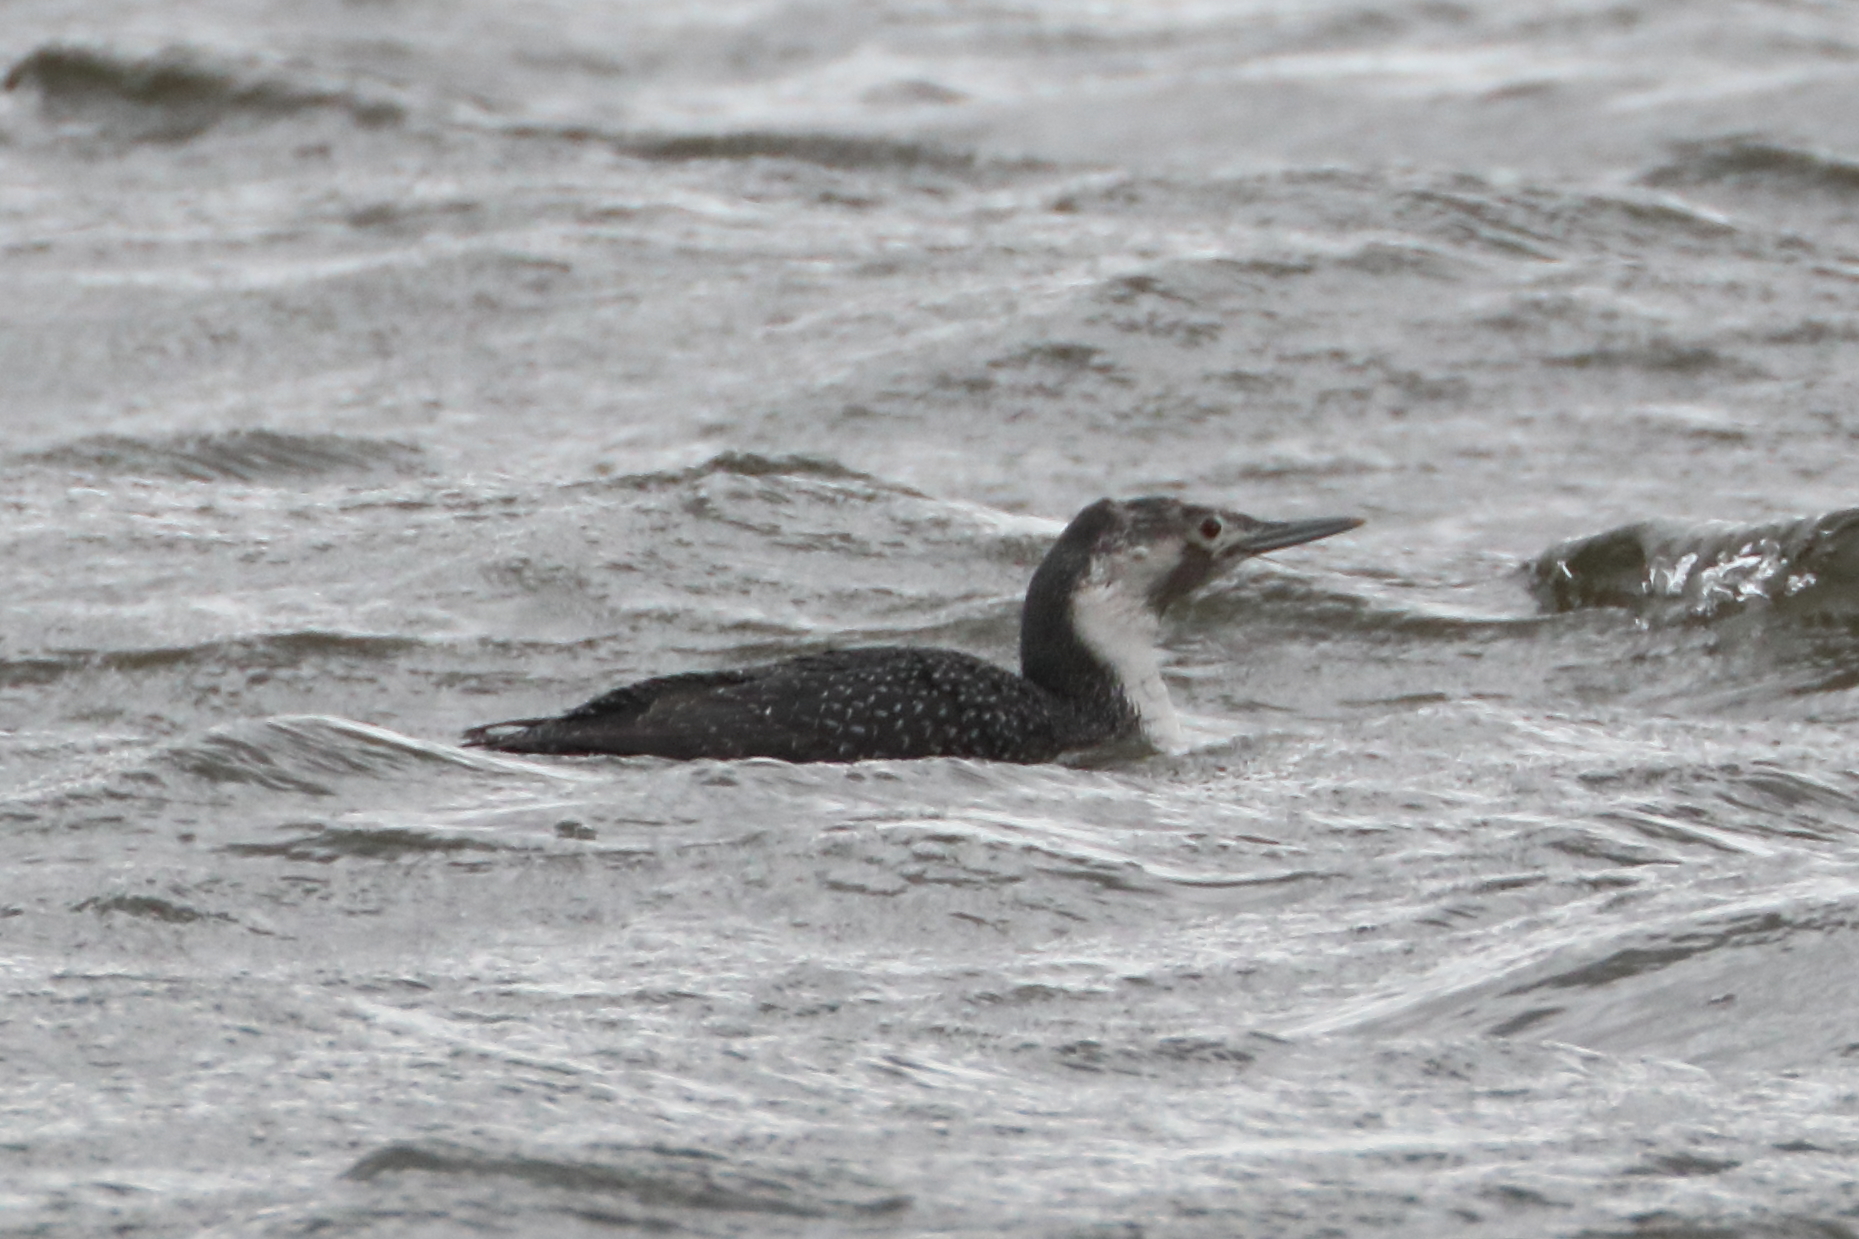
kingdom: Animalia
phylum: Chordata
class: Aves
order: Gaviiformes
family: Gaviidae
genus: Gavia
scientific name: Gavia stellata
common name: Red-throated loon
